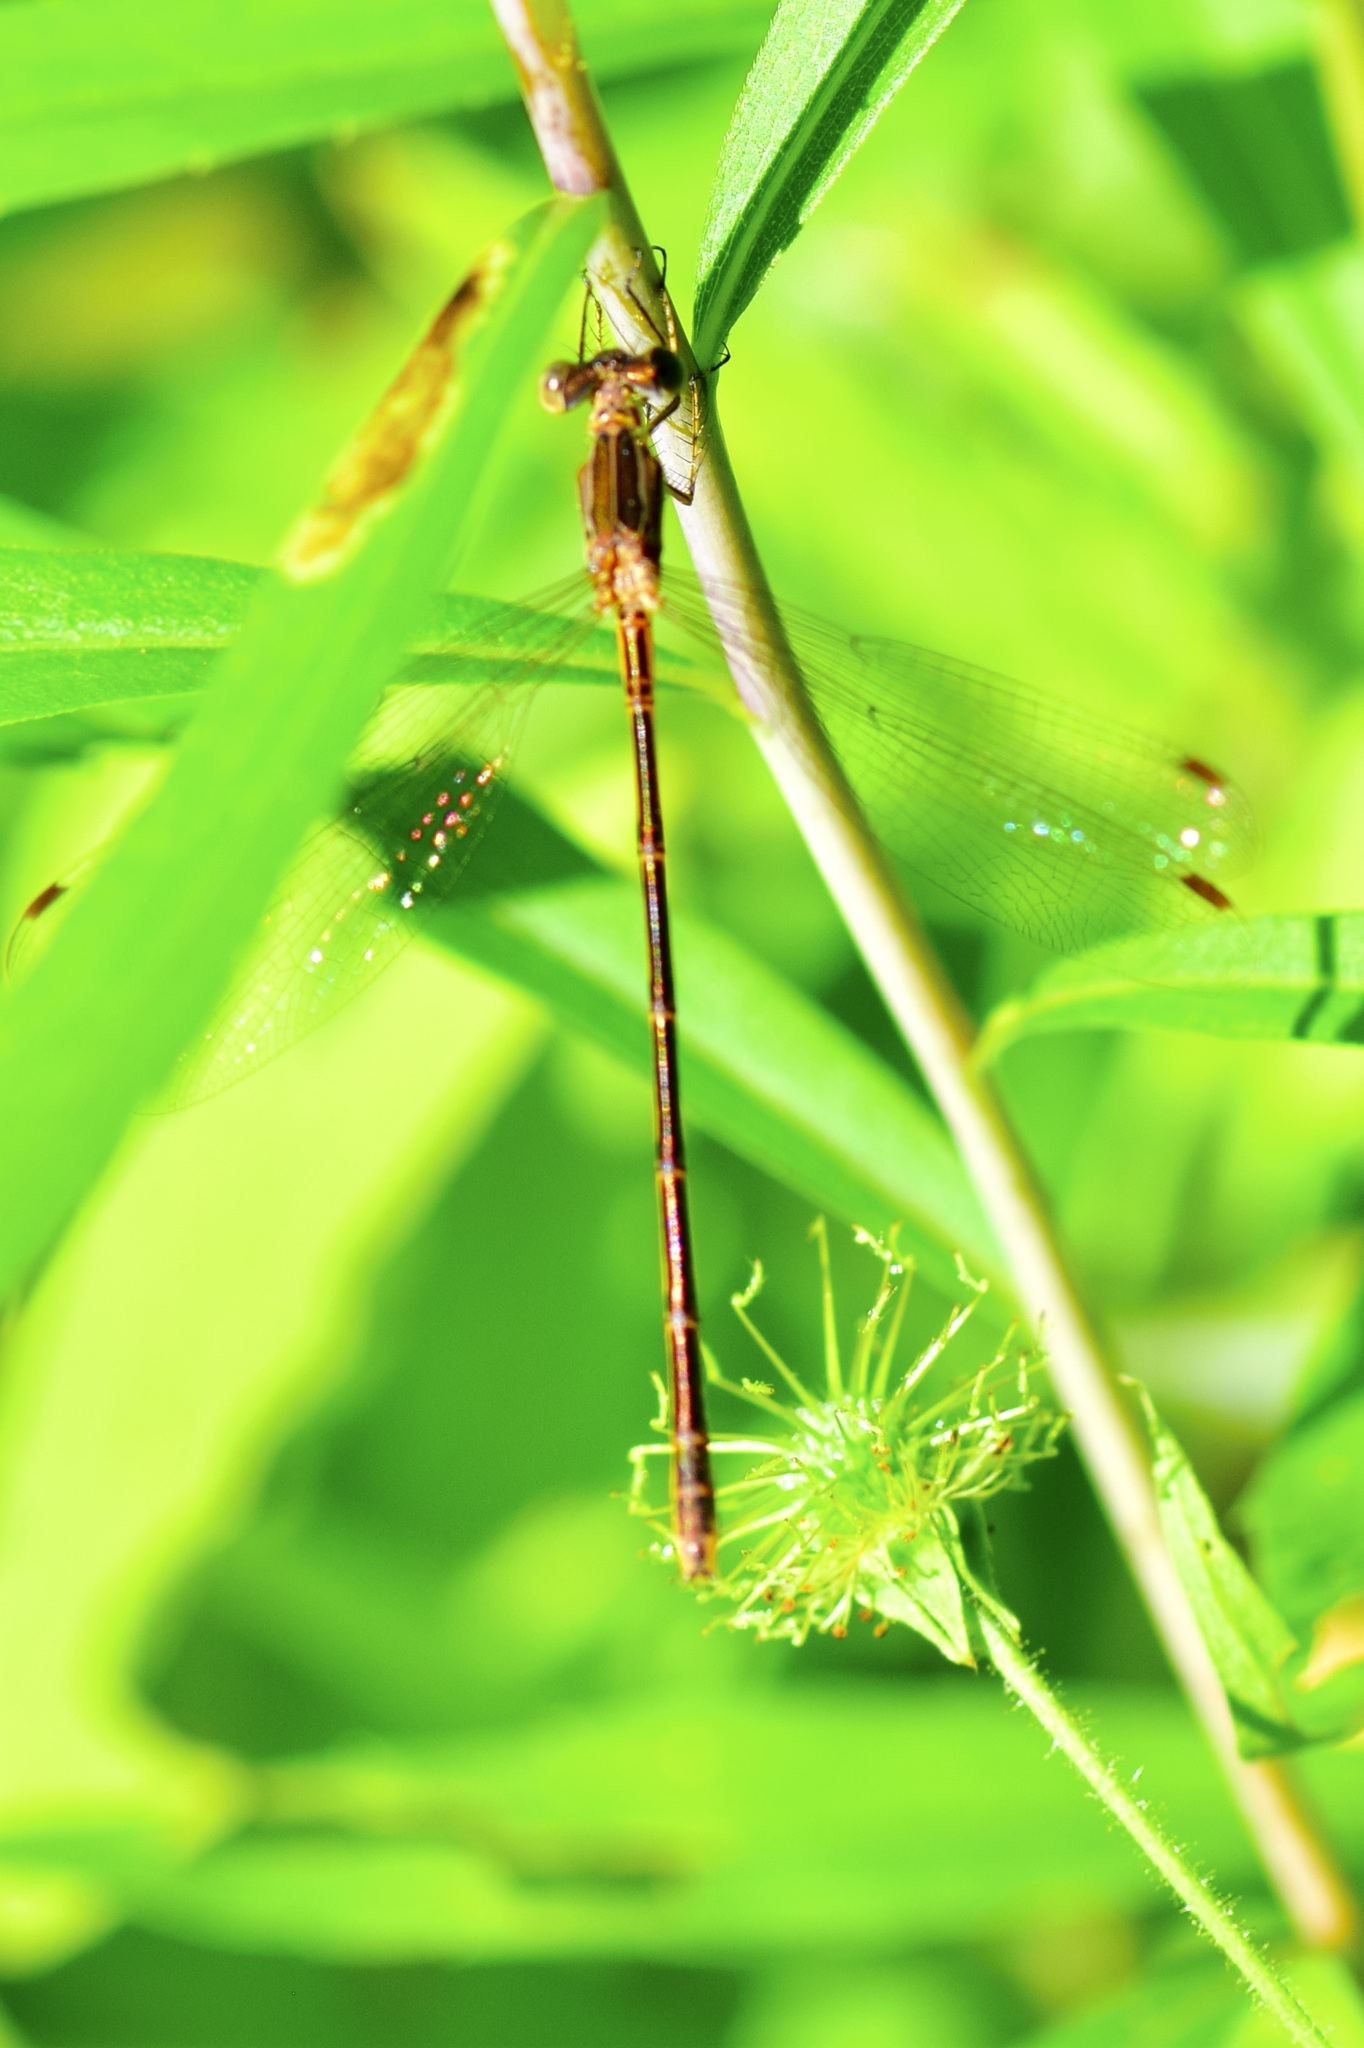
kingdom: Animalia
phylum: Arthropoda
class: Insecta
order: Odonata
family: Lestidae
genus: Lestes
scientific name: Lestes rectangularis
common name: Slender spreadwing
